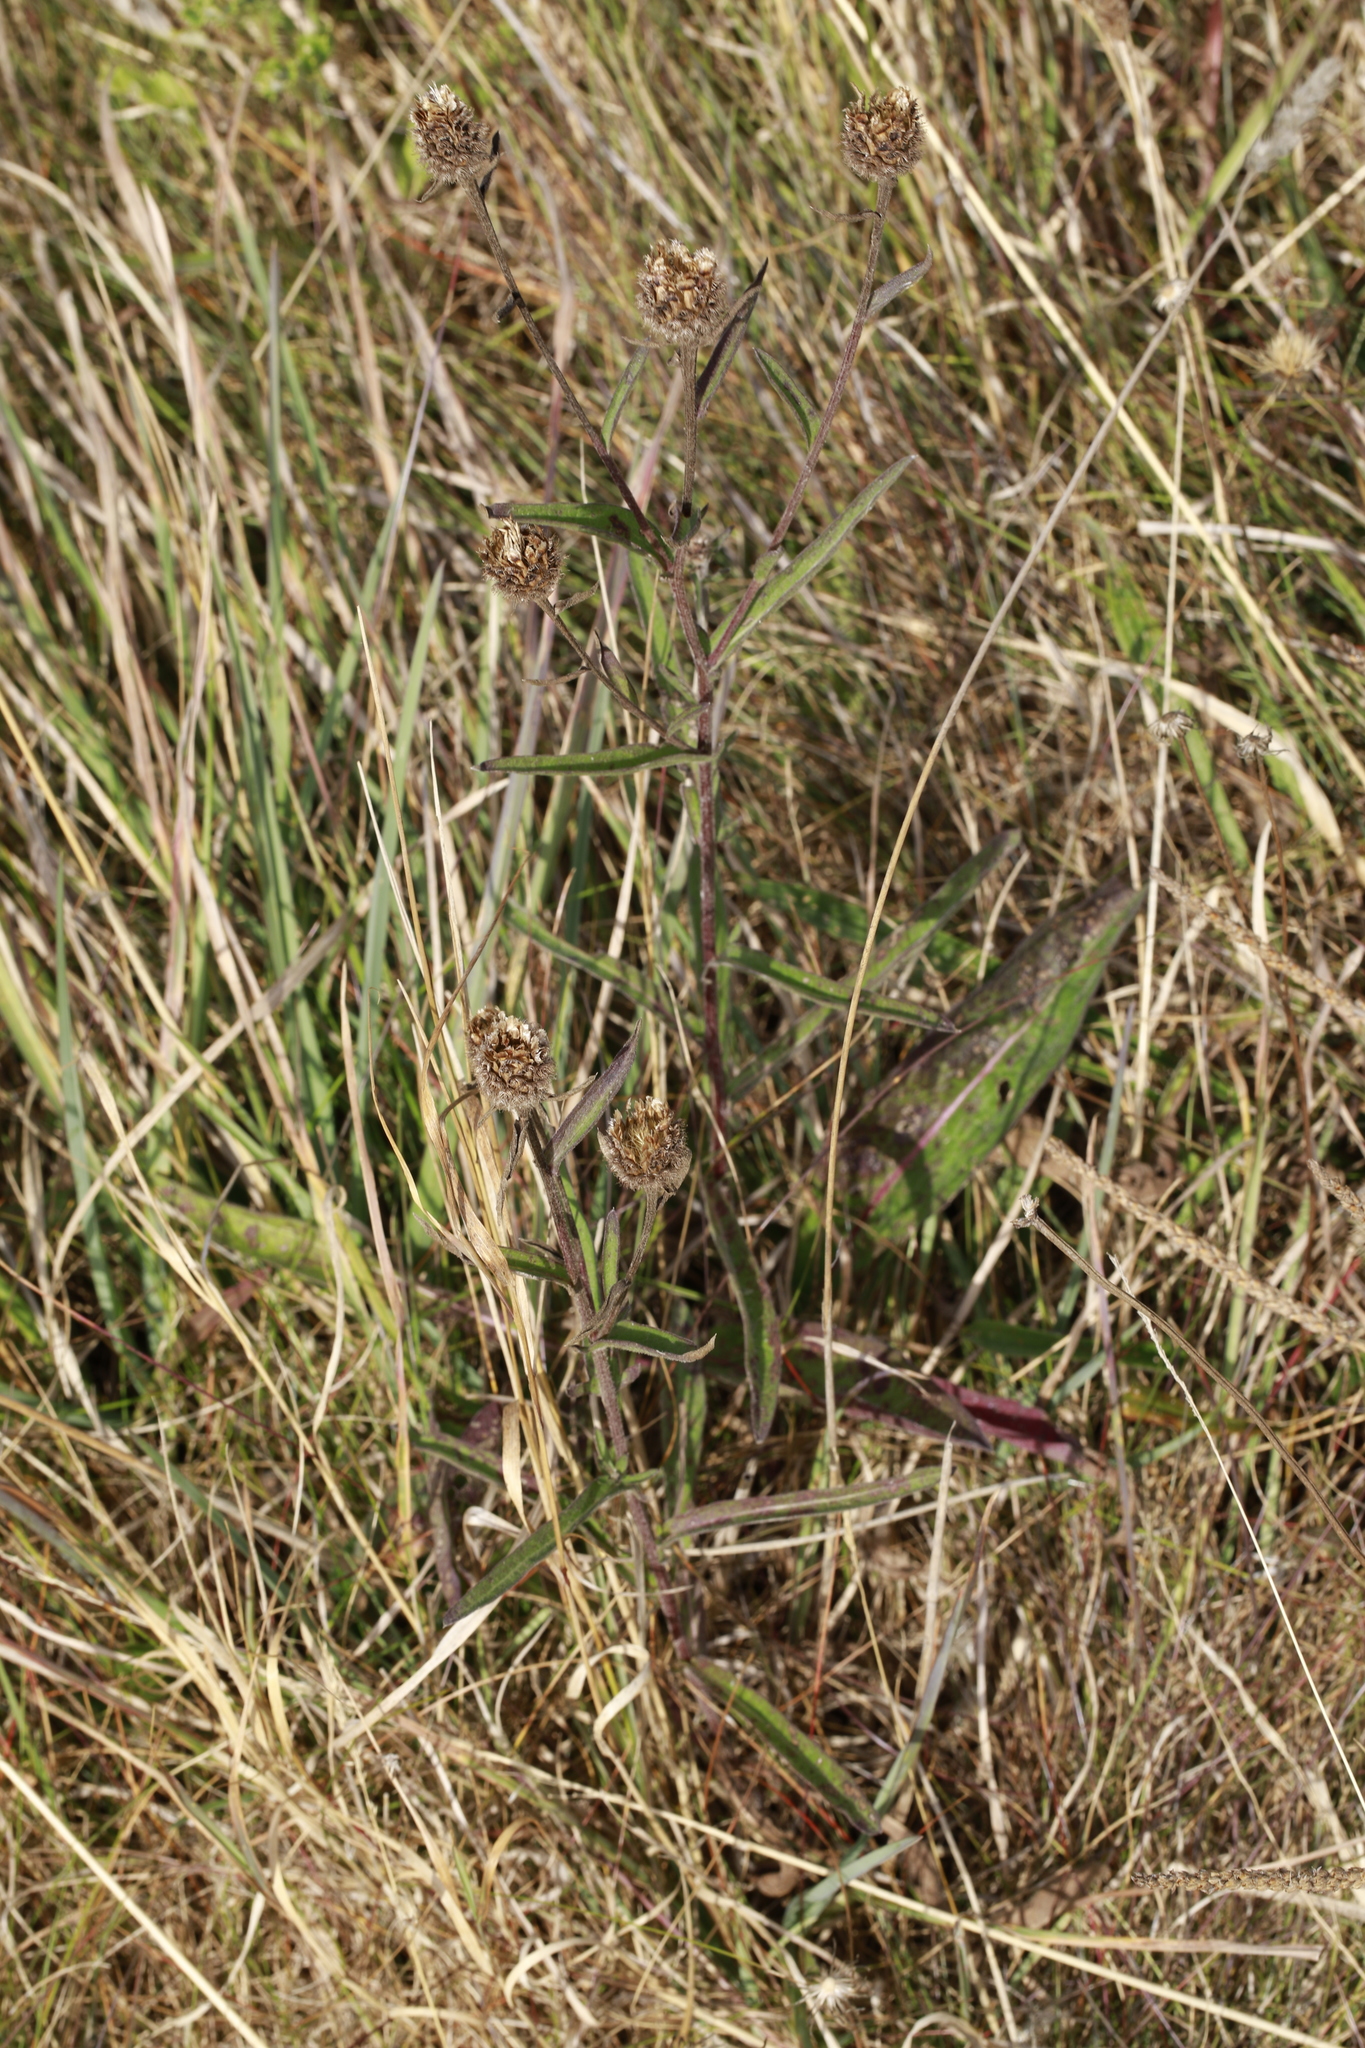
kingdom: Plantae
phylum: Tracheophyta
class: Magnoliopsida
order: Asterales
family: Asteraceae
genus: Centaurea
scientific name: Centaurea nigra
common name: Lesser knapweed
